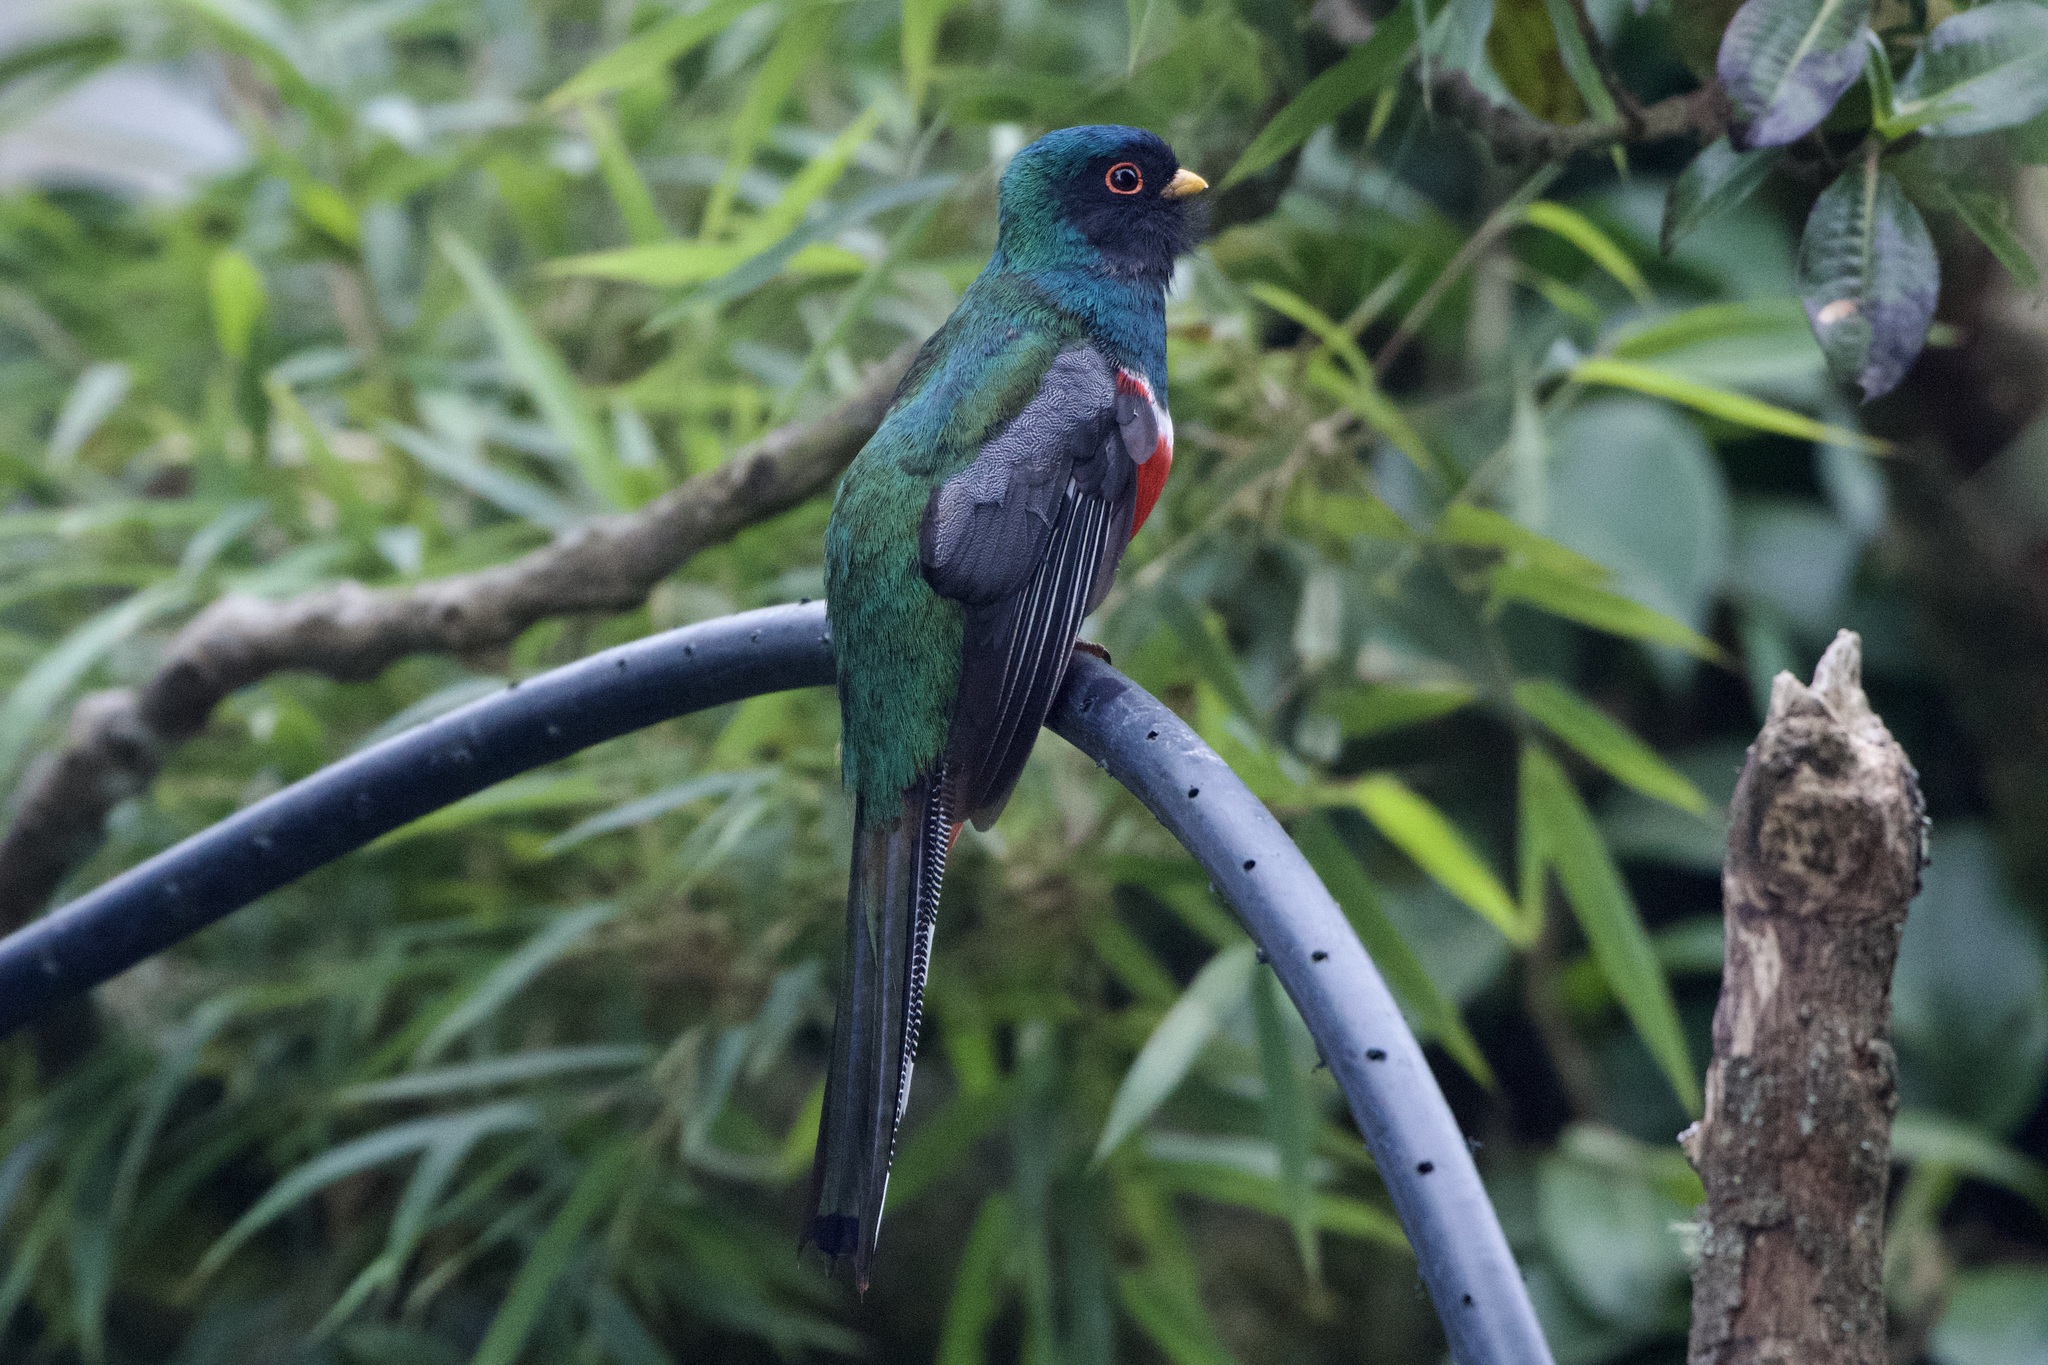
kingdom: Animalia
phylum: Chordata
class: Aves
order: Trogoniformes
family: Trogonidae
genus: Trogon
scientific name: Trogon personatus
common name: Masked trogon
